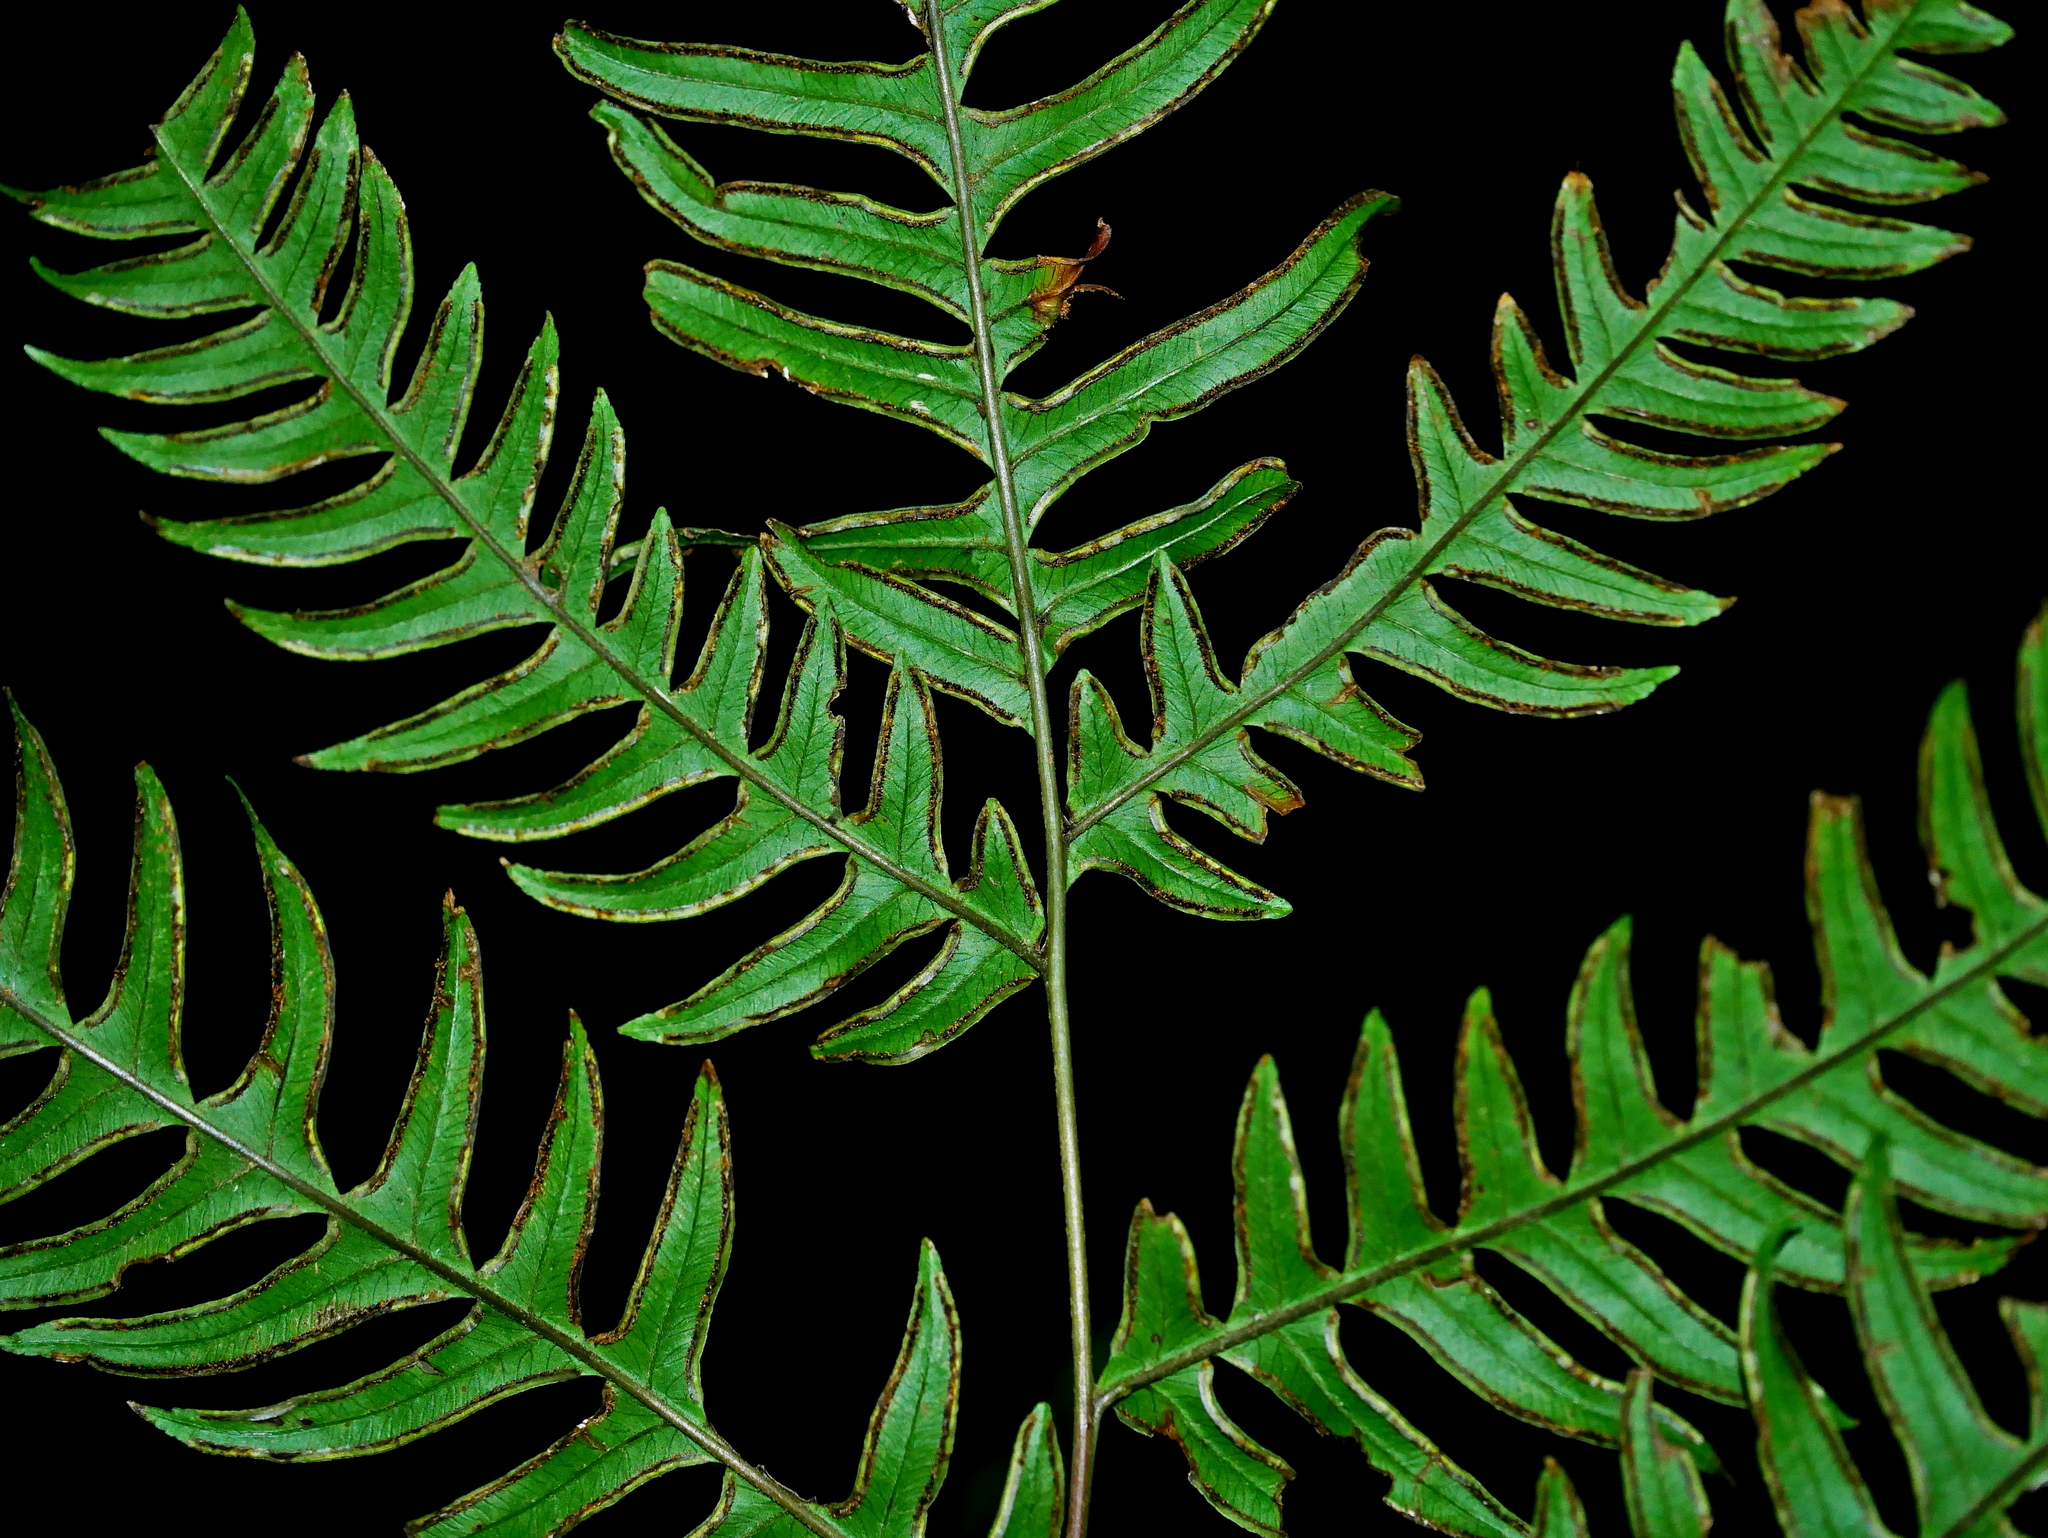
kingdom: Plantae
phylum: Tracheophyta
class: Polypodiopsida
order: Polypodiales
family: Pteridaceae
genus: Pteris
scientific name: Pteris terminalis
